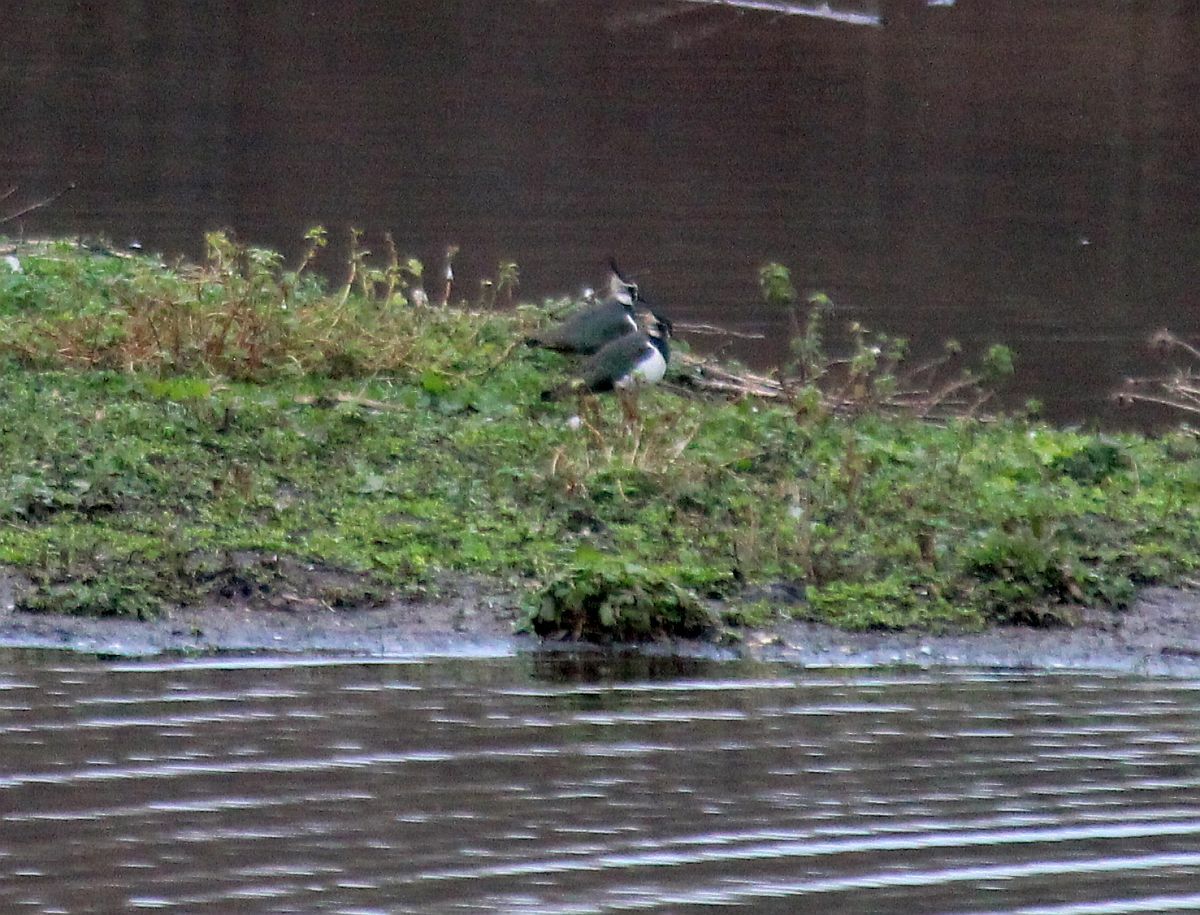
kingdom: Animalia
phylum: Chordata
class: Aves
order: Charadriiformes
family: Charadriidae
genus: Vanellus
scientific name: Vanellus vanellus
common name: Northern lapwing
